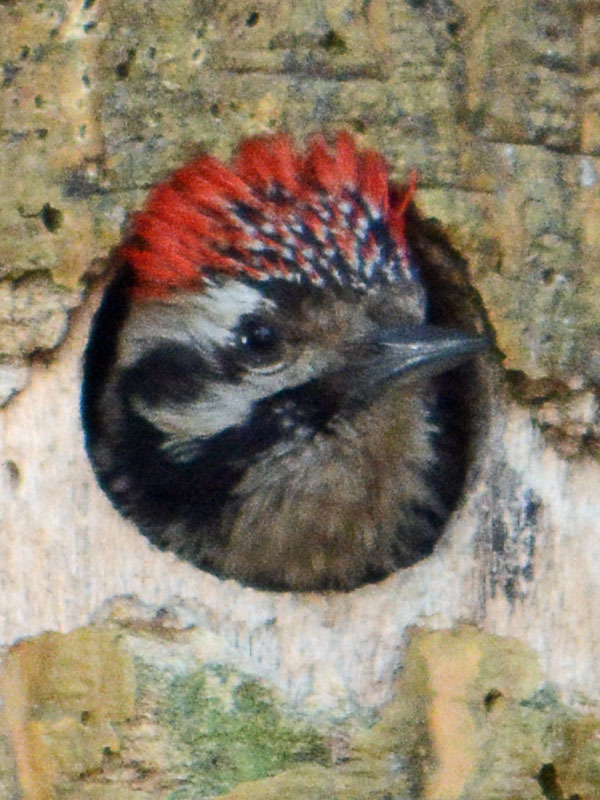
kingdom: Animalia
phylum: Chordata
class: Aves
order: Piciformes
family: Picidae
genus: Dryobates
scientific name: Dryobates scalaris
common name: Ladder-backed woodpecker
